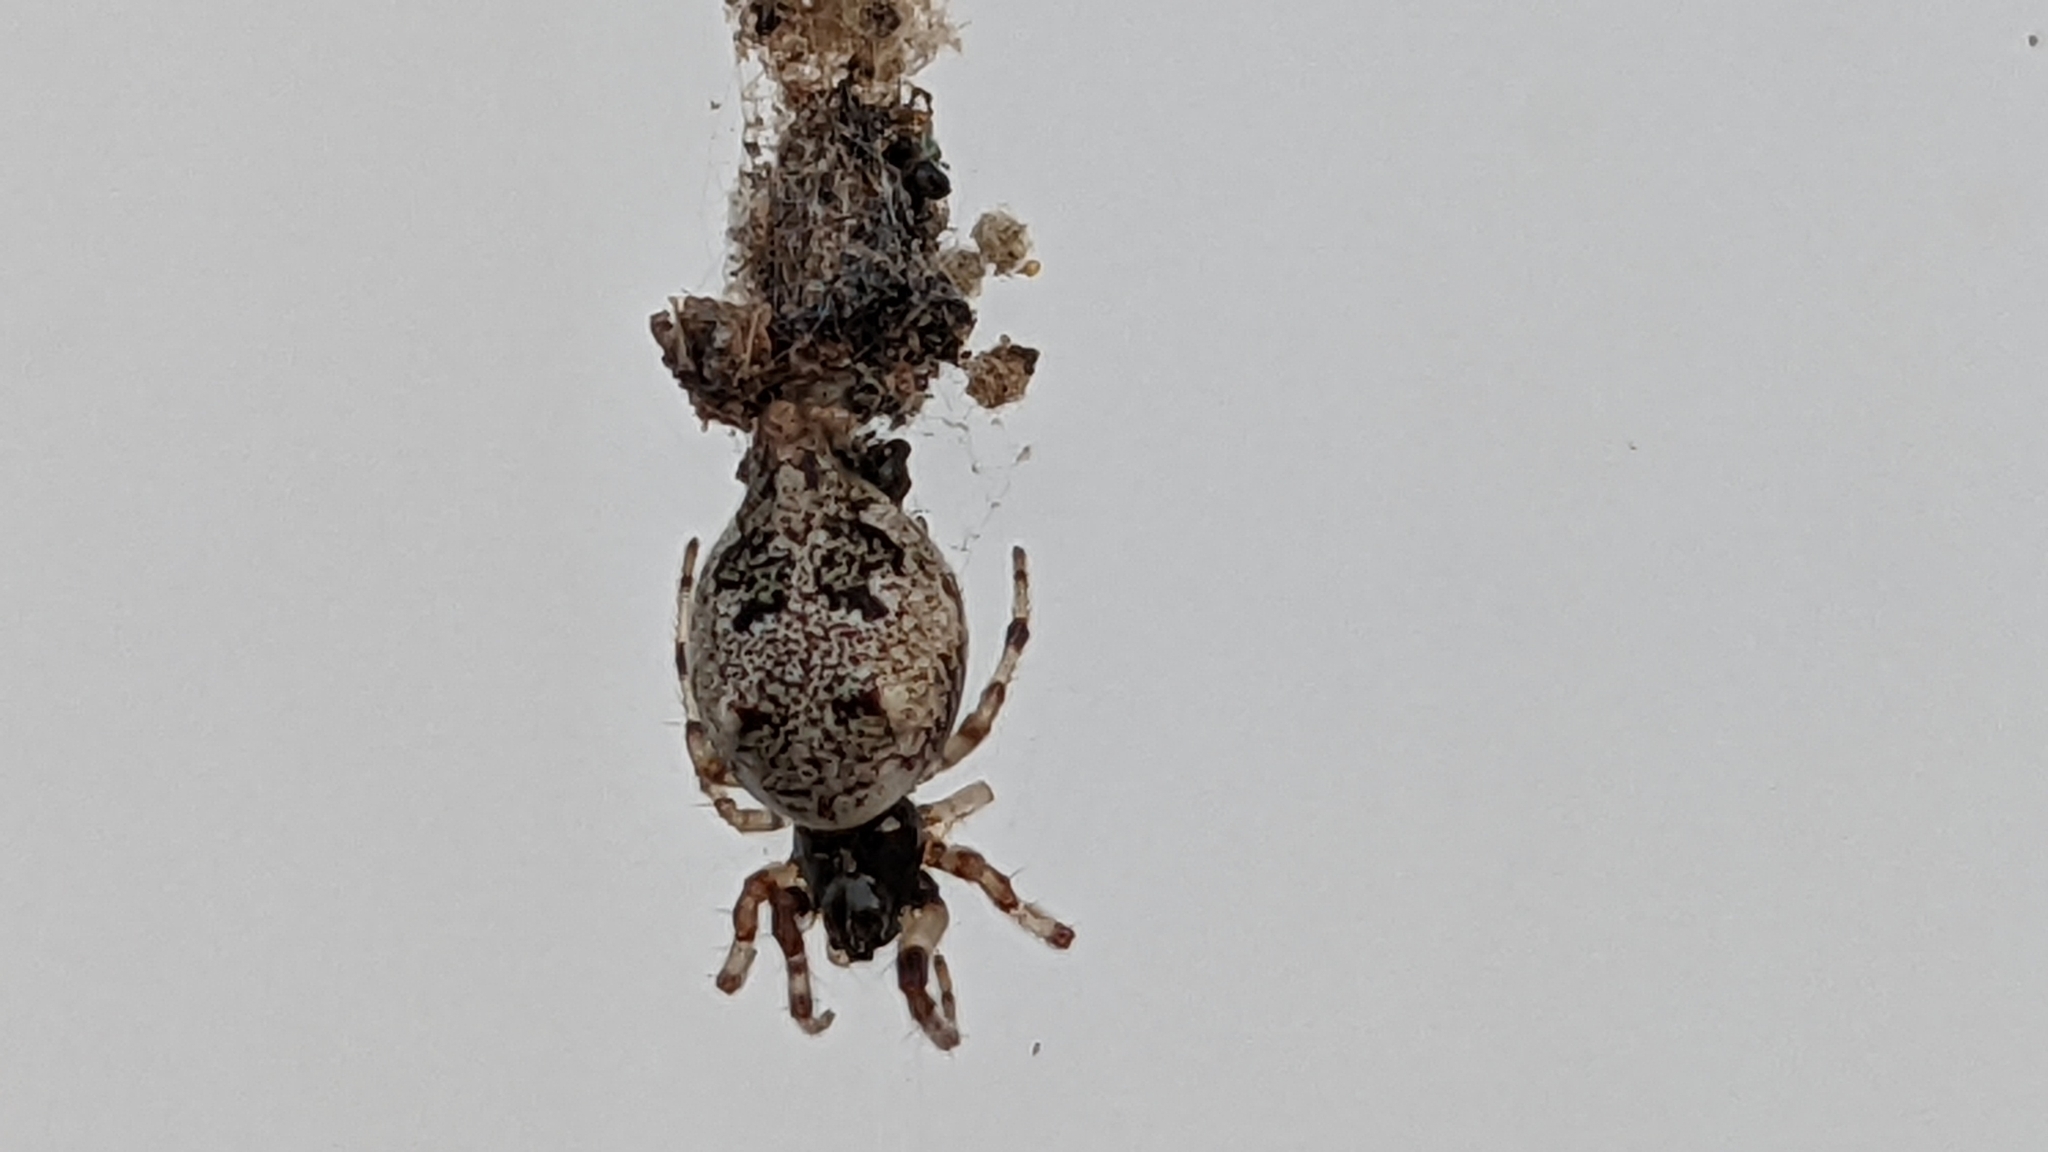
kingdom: Animalia
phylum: Arthropoda
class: Arachnida
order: Araneae
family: Araneidae
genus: Cyclosa
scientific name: Cyclosa turbinata
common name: Orb weavers
